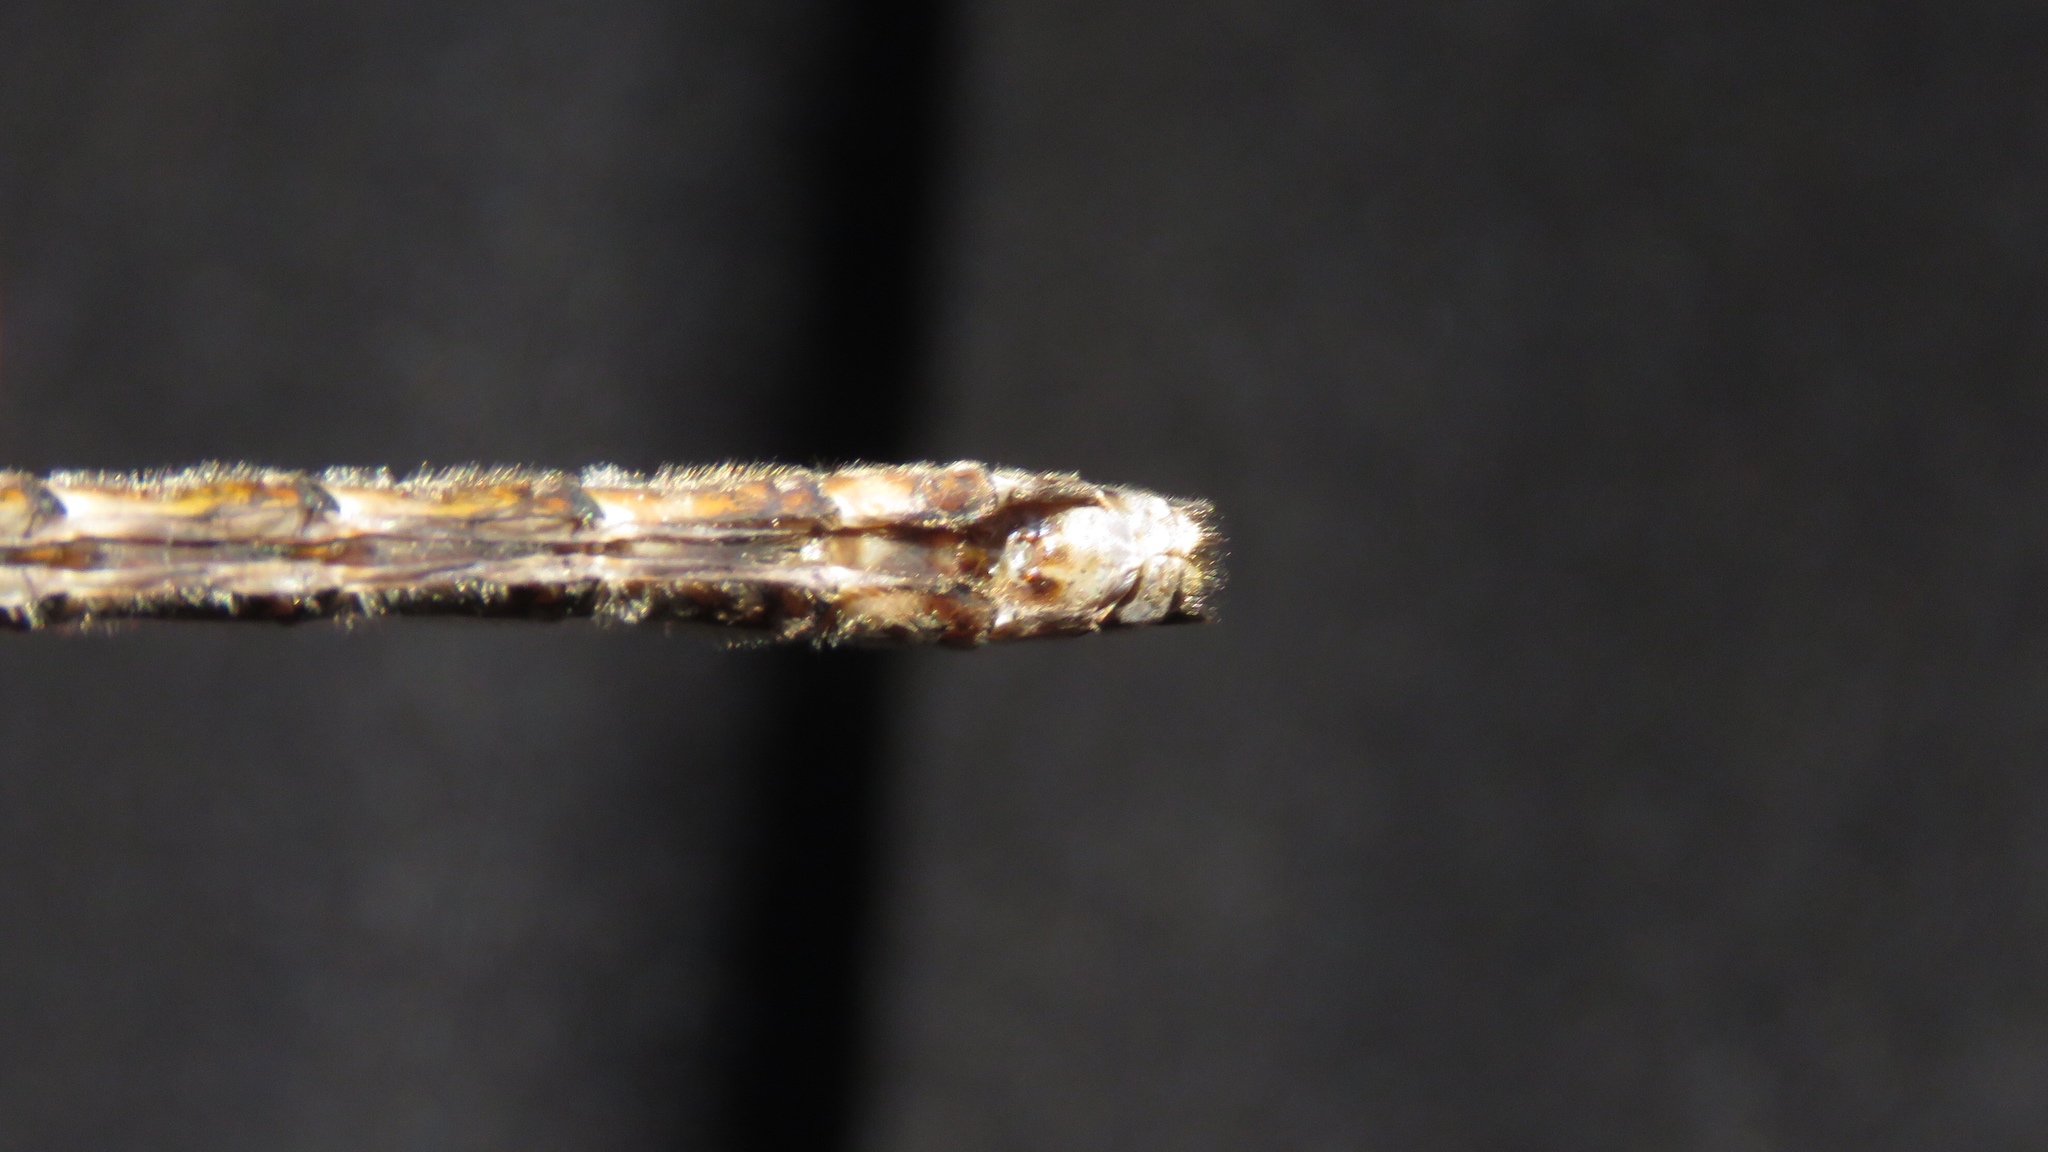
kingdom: Animalia
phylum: Arthropoda
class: Insecta
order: Odonata
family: Macromiidae
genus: Didymops
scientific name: Didymops transversa
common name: Stream cruiser
